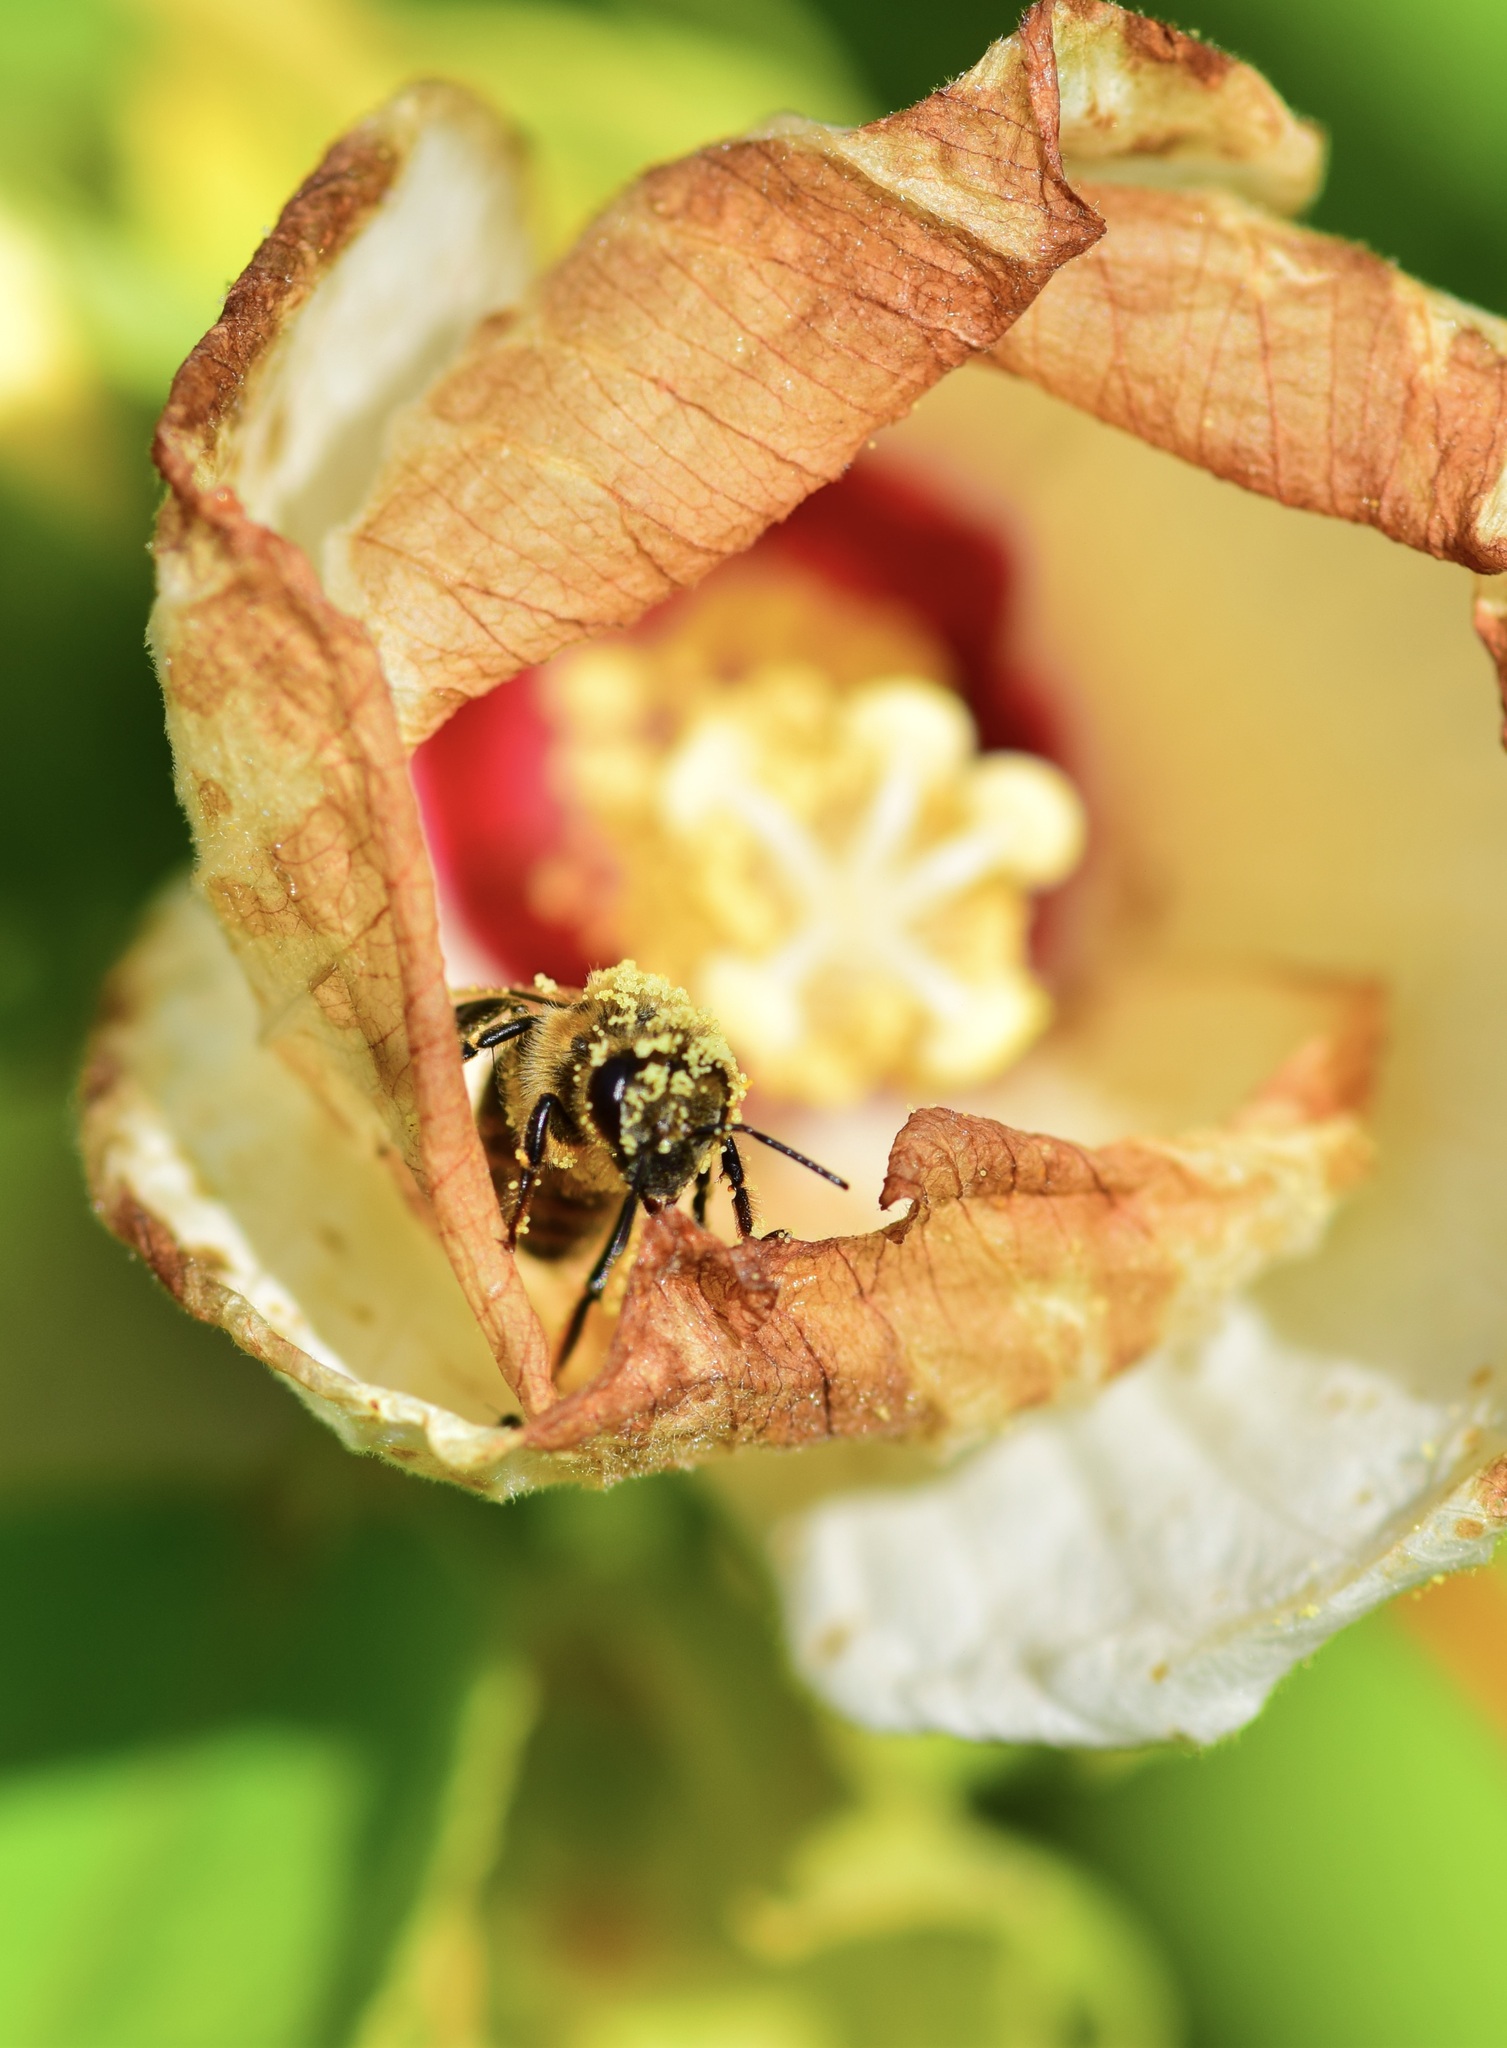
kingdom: Animalia
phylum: Arthropoda
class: Insecta
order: Hymenoptera
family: Apidae
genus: Apis
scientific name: Apis mellifera
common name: Honey bee
